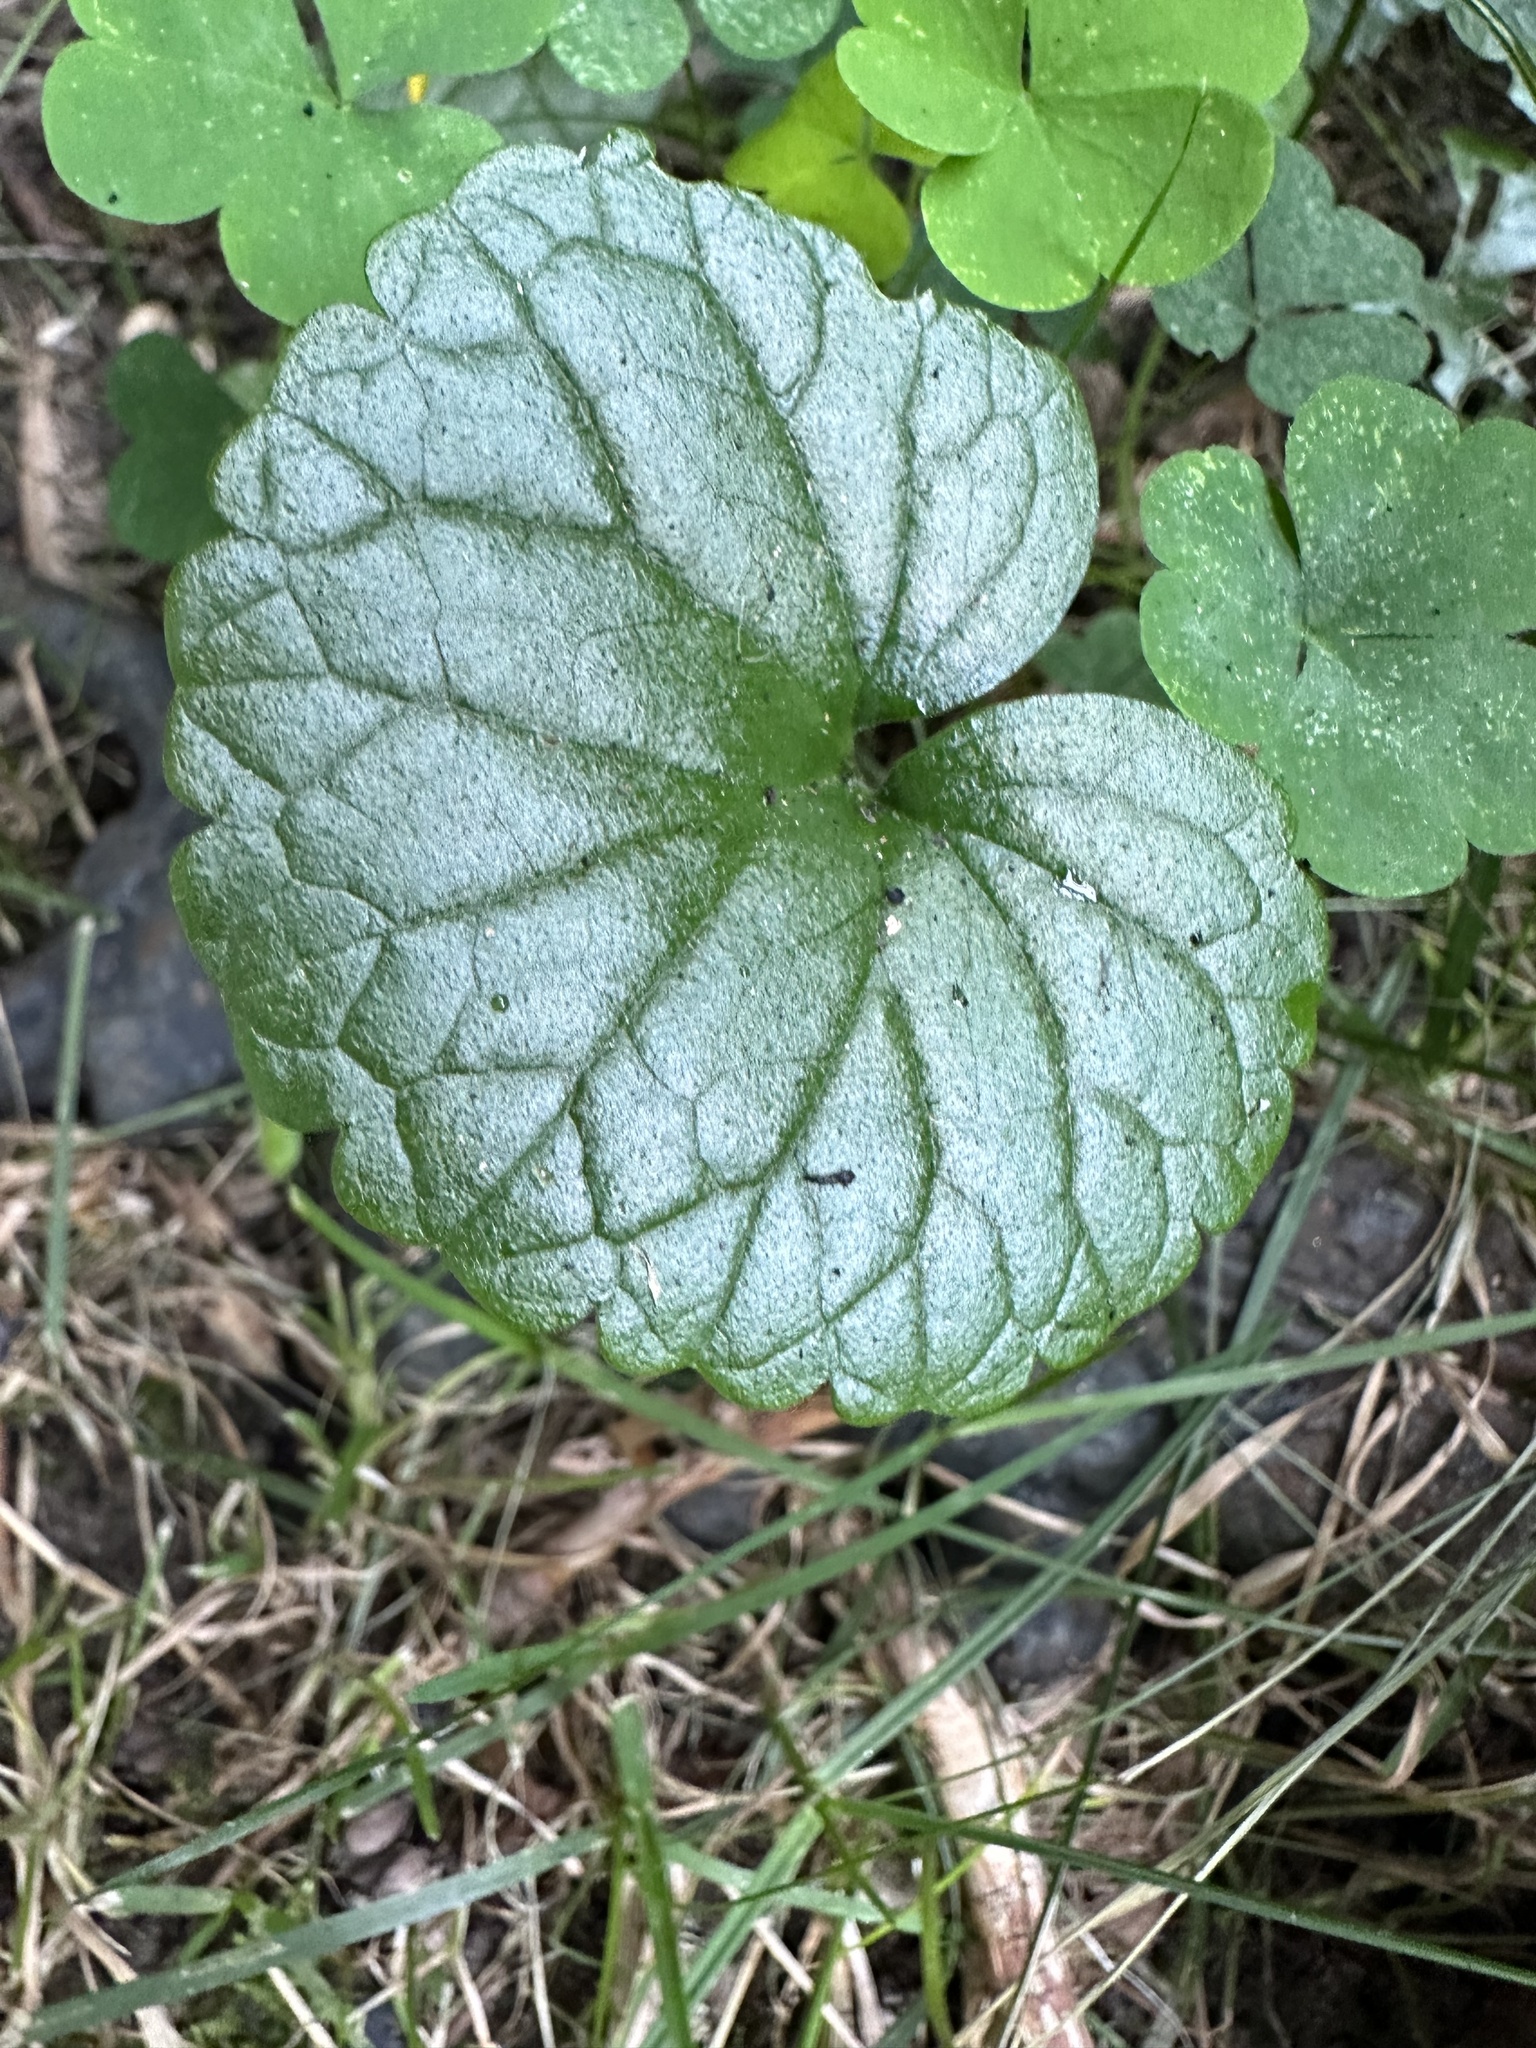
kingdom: Plantae
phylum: Tracheophyta
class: Magnoliopsida
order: Lamiales
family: Lamiaceae
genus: Glechoma
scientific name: Glechoma hederacea
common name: Ground ivy
